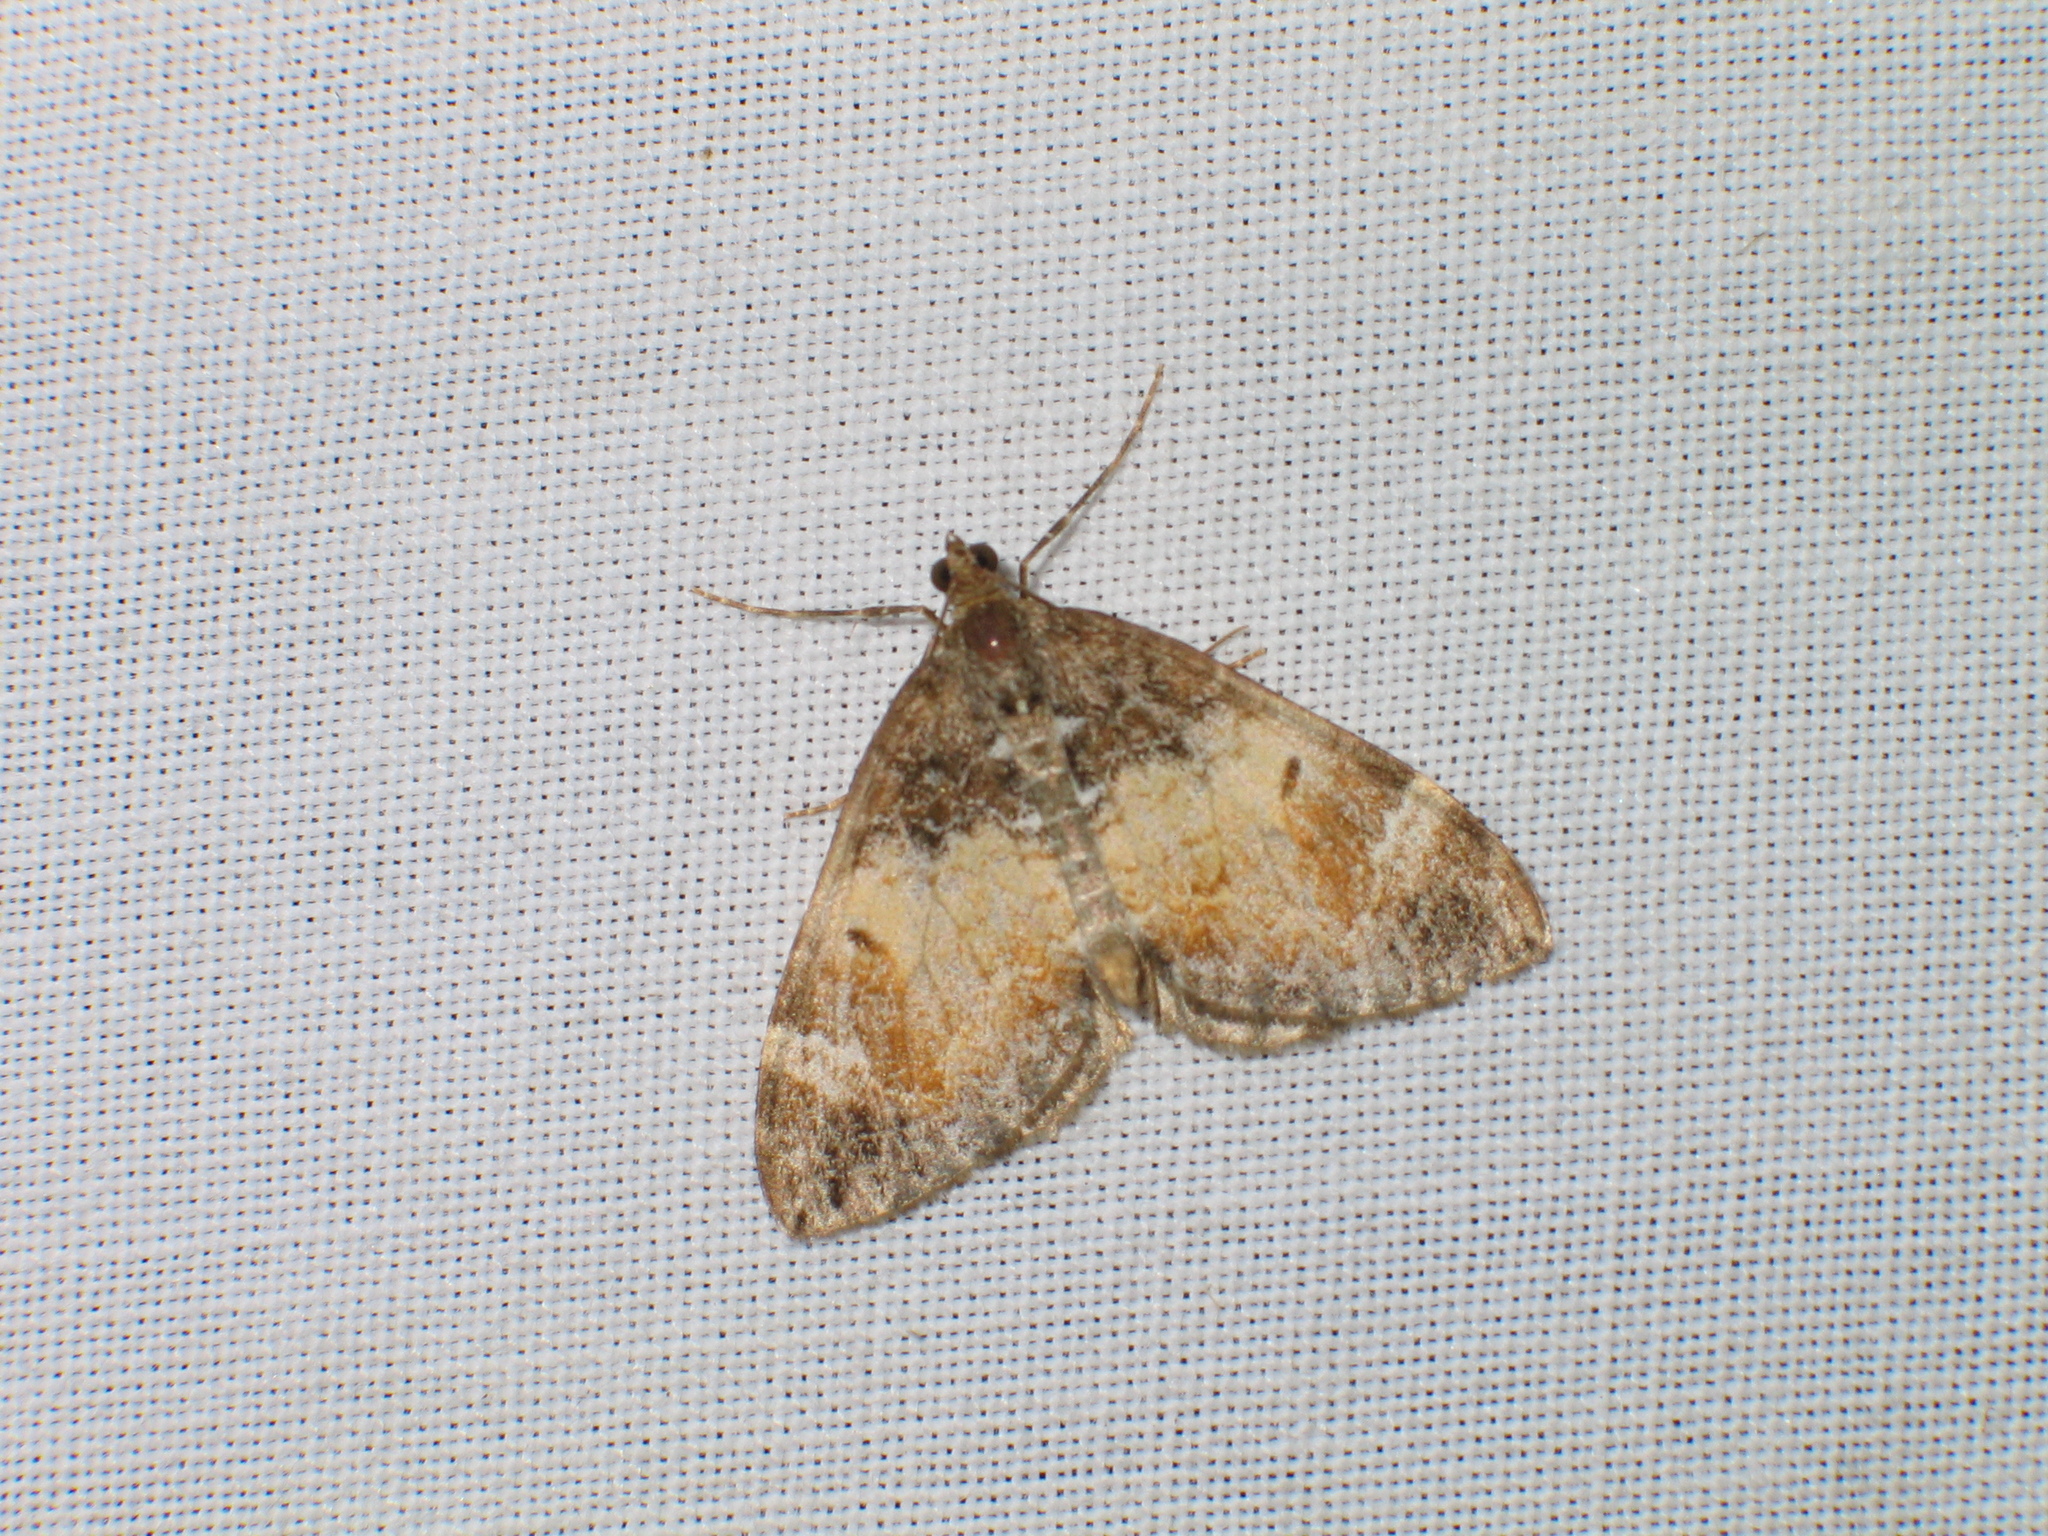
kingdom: Animalia
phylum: Arthropoda
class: Insecta
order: Lepidoptera
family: Geometridae
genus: Dysstroma
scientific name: Dysstroma truncata
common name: Common marbled carpet
